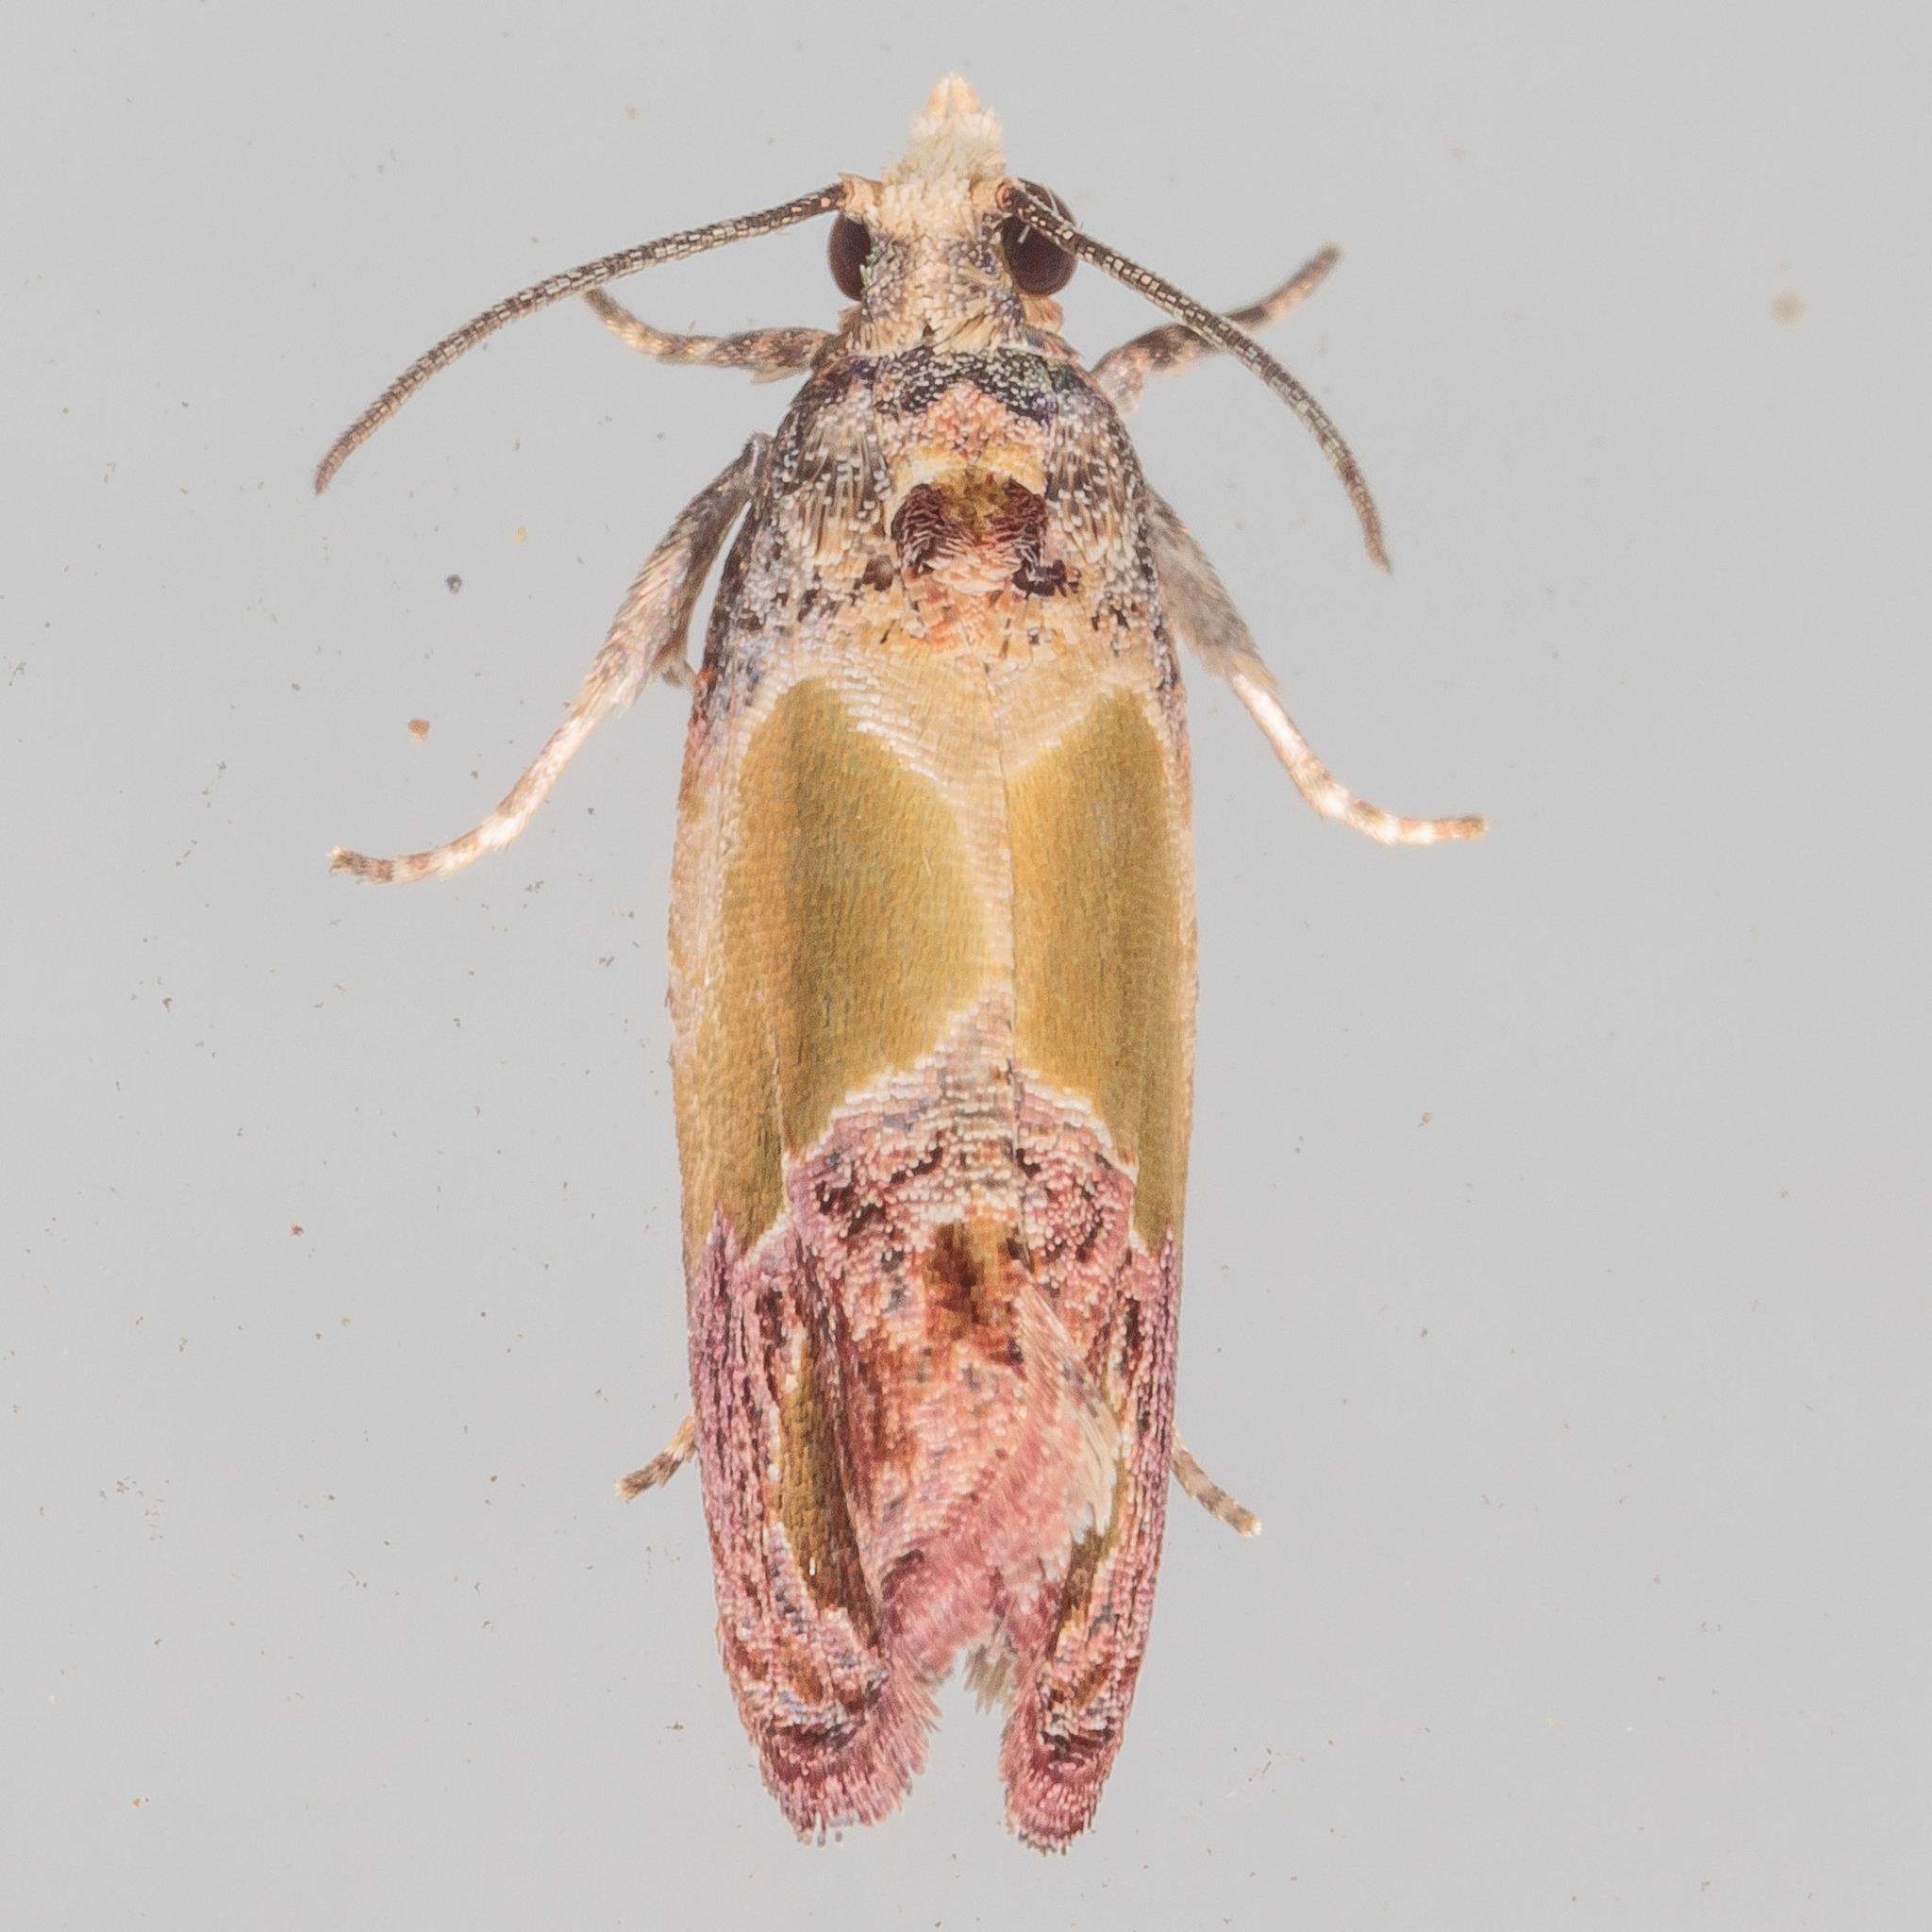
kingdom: Animalia
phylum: Arthropoda
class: Insecta
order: Lepidoptera
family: Tortricidae
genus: Eumarozia
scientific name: Eumarozia malachitana
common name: Sculptured moth
